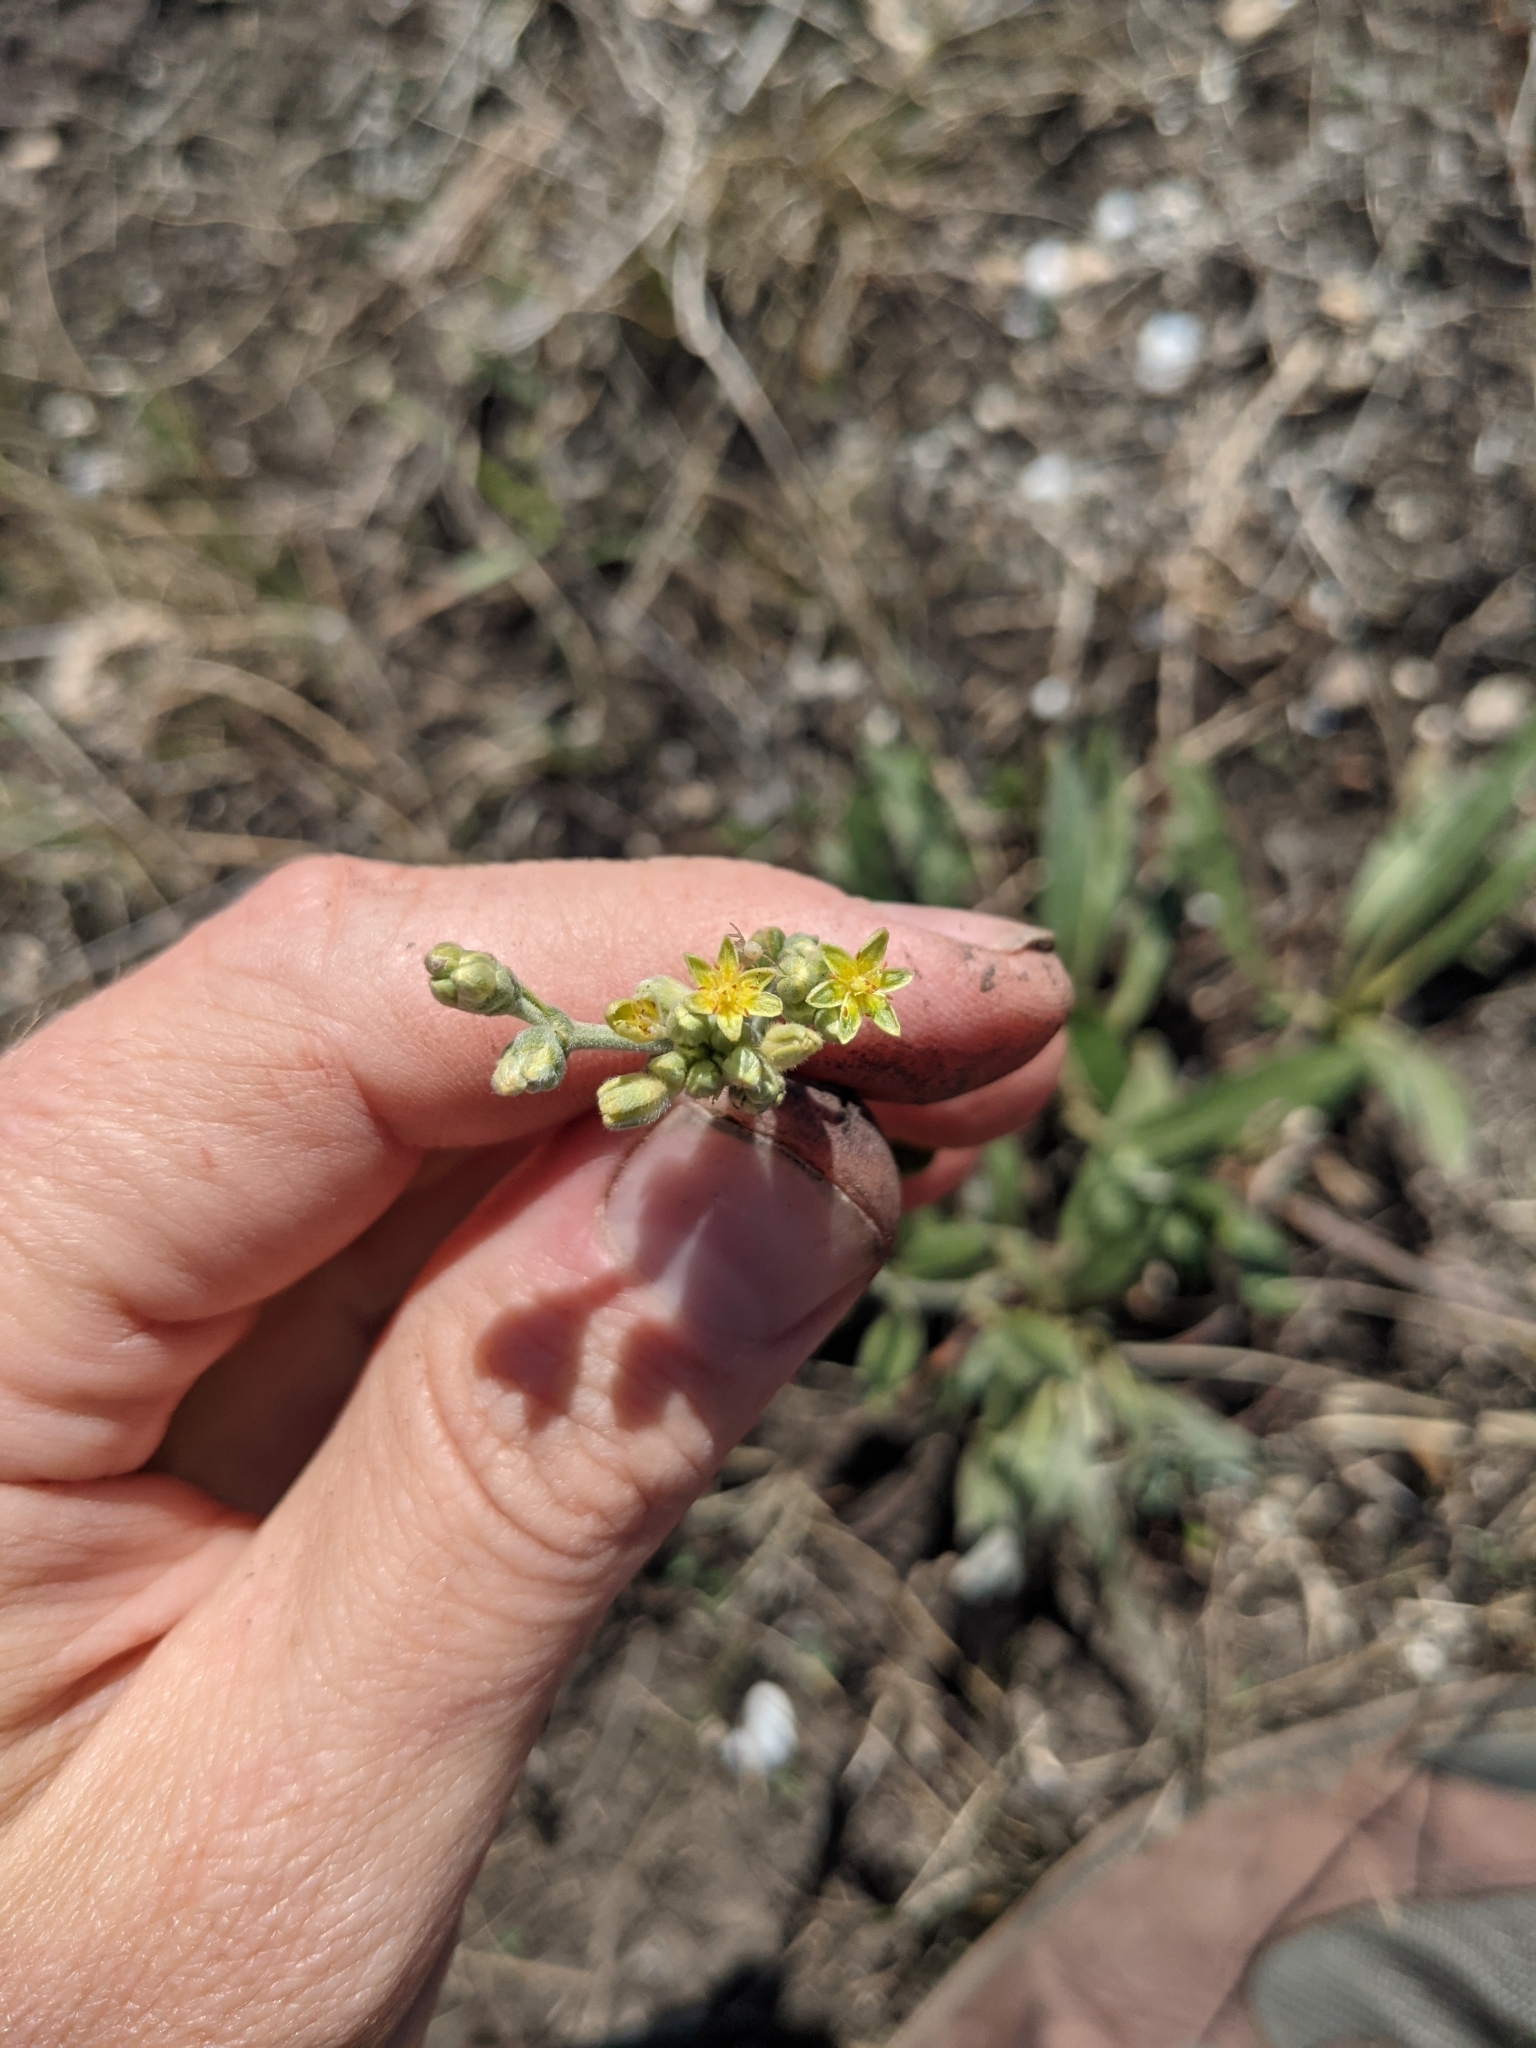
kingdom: Plantae
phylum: Tracheophyta
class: Magnoliopsida
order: Caryophyllales
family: Polygonaceae
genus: Eriogonum
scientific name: Eriogonum longifolium
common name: Longleaf wild buckwheat
